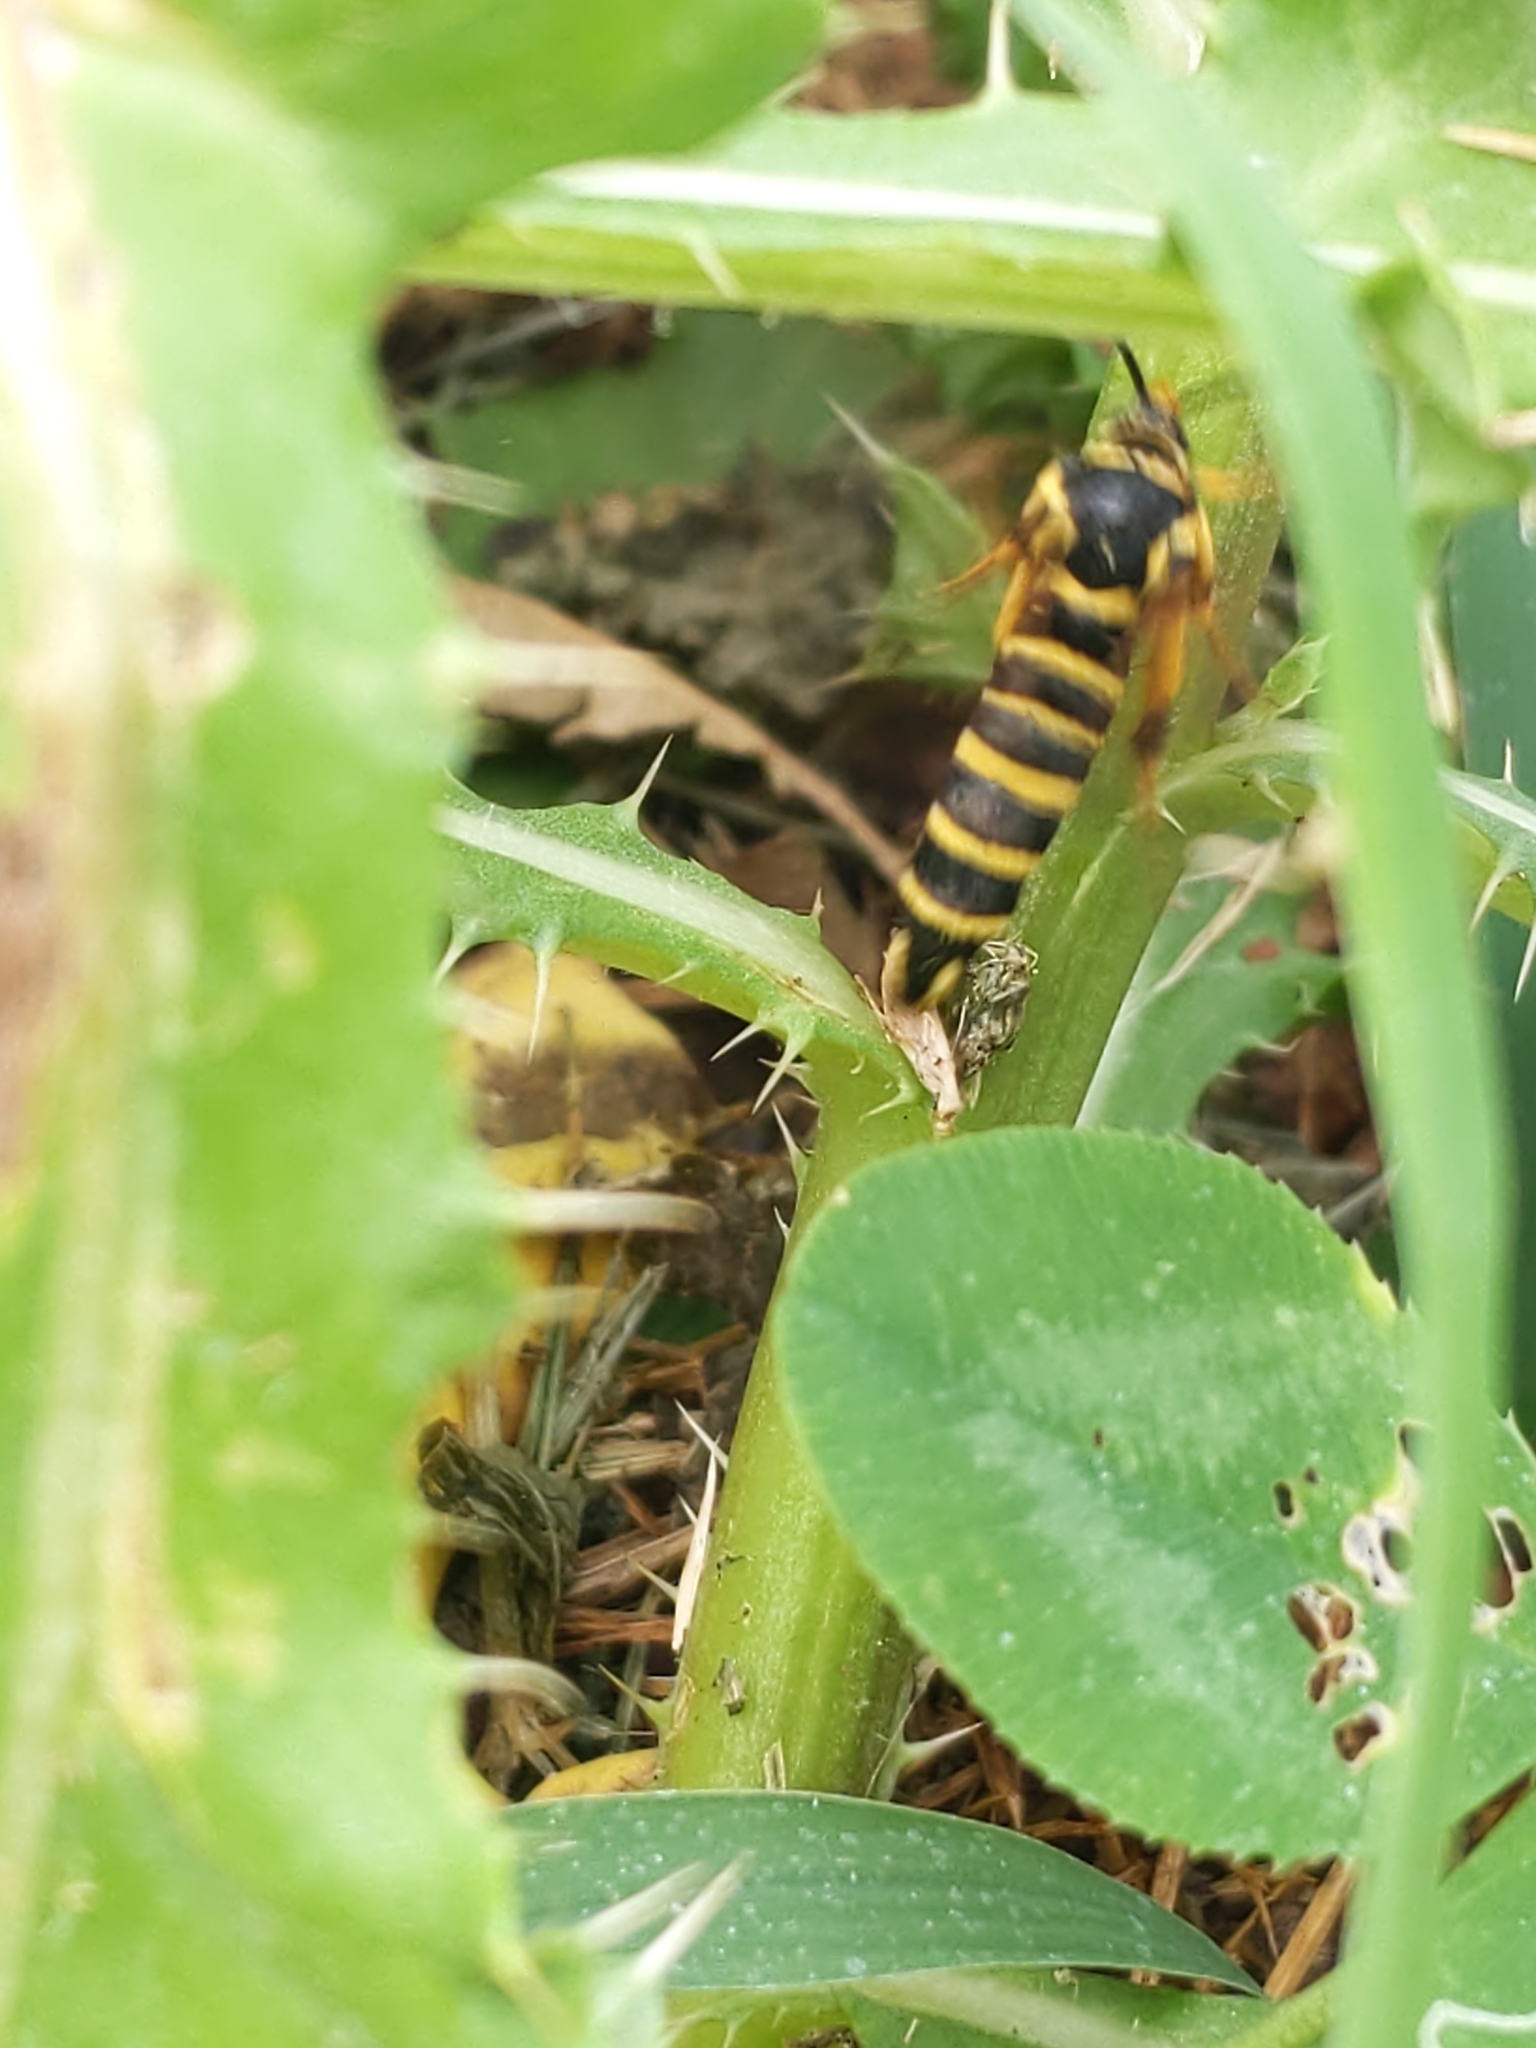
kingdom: Animalia
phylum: Arthropoda
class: Insecta
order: Lepidoptera
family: Sesiidae
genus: Synanthedon
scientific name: Synanthedon rileyana
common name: Riley's clearwing moth
